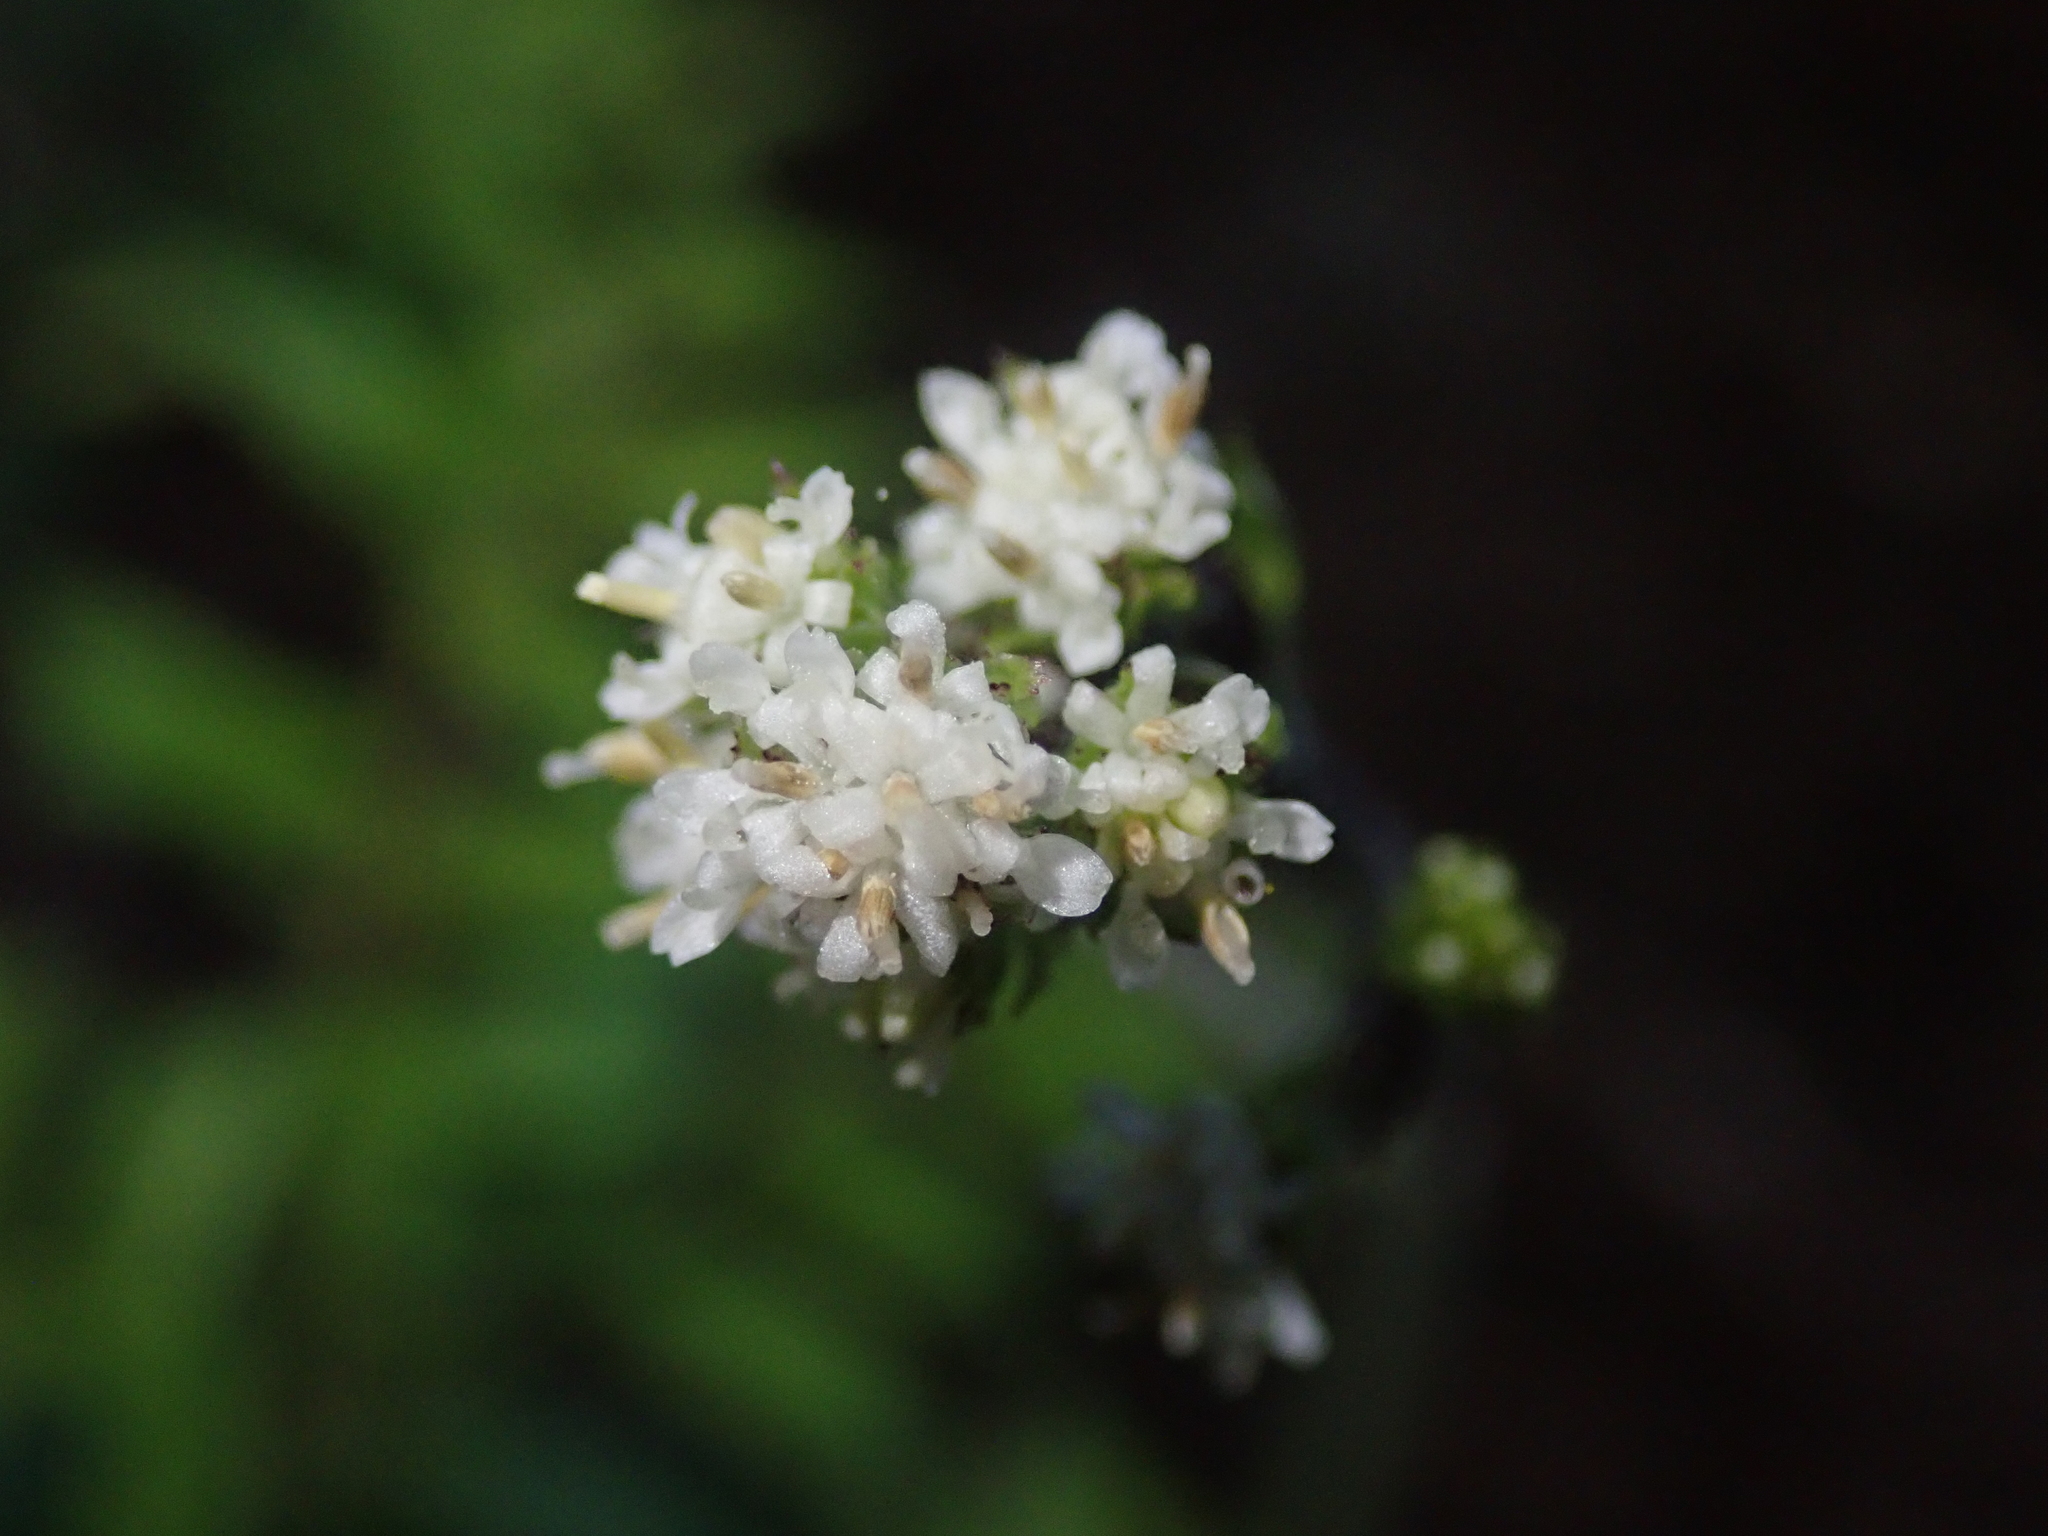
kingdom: Plantae
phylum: Tracheophyta
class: Magnoliopsida
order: Asterales
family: Asteraceae
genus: Adenocaulon
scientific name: Adenocaulon chilense
